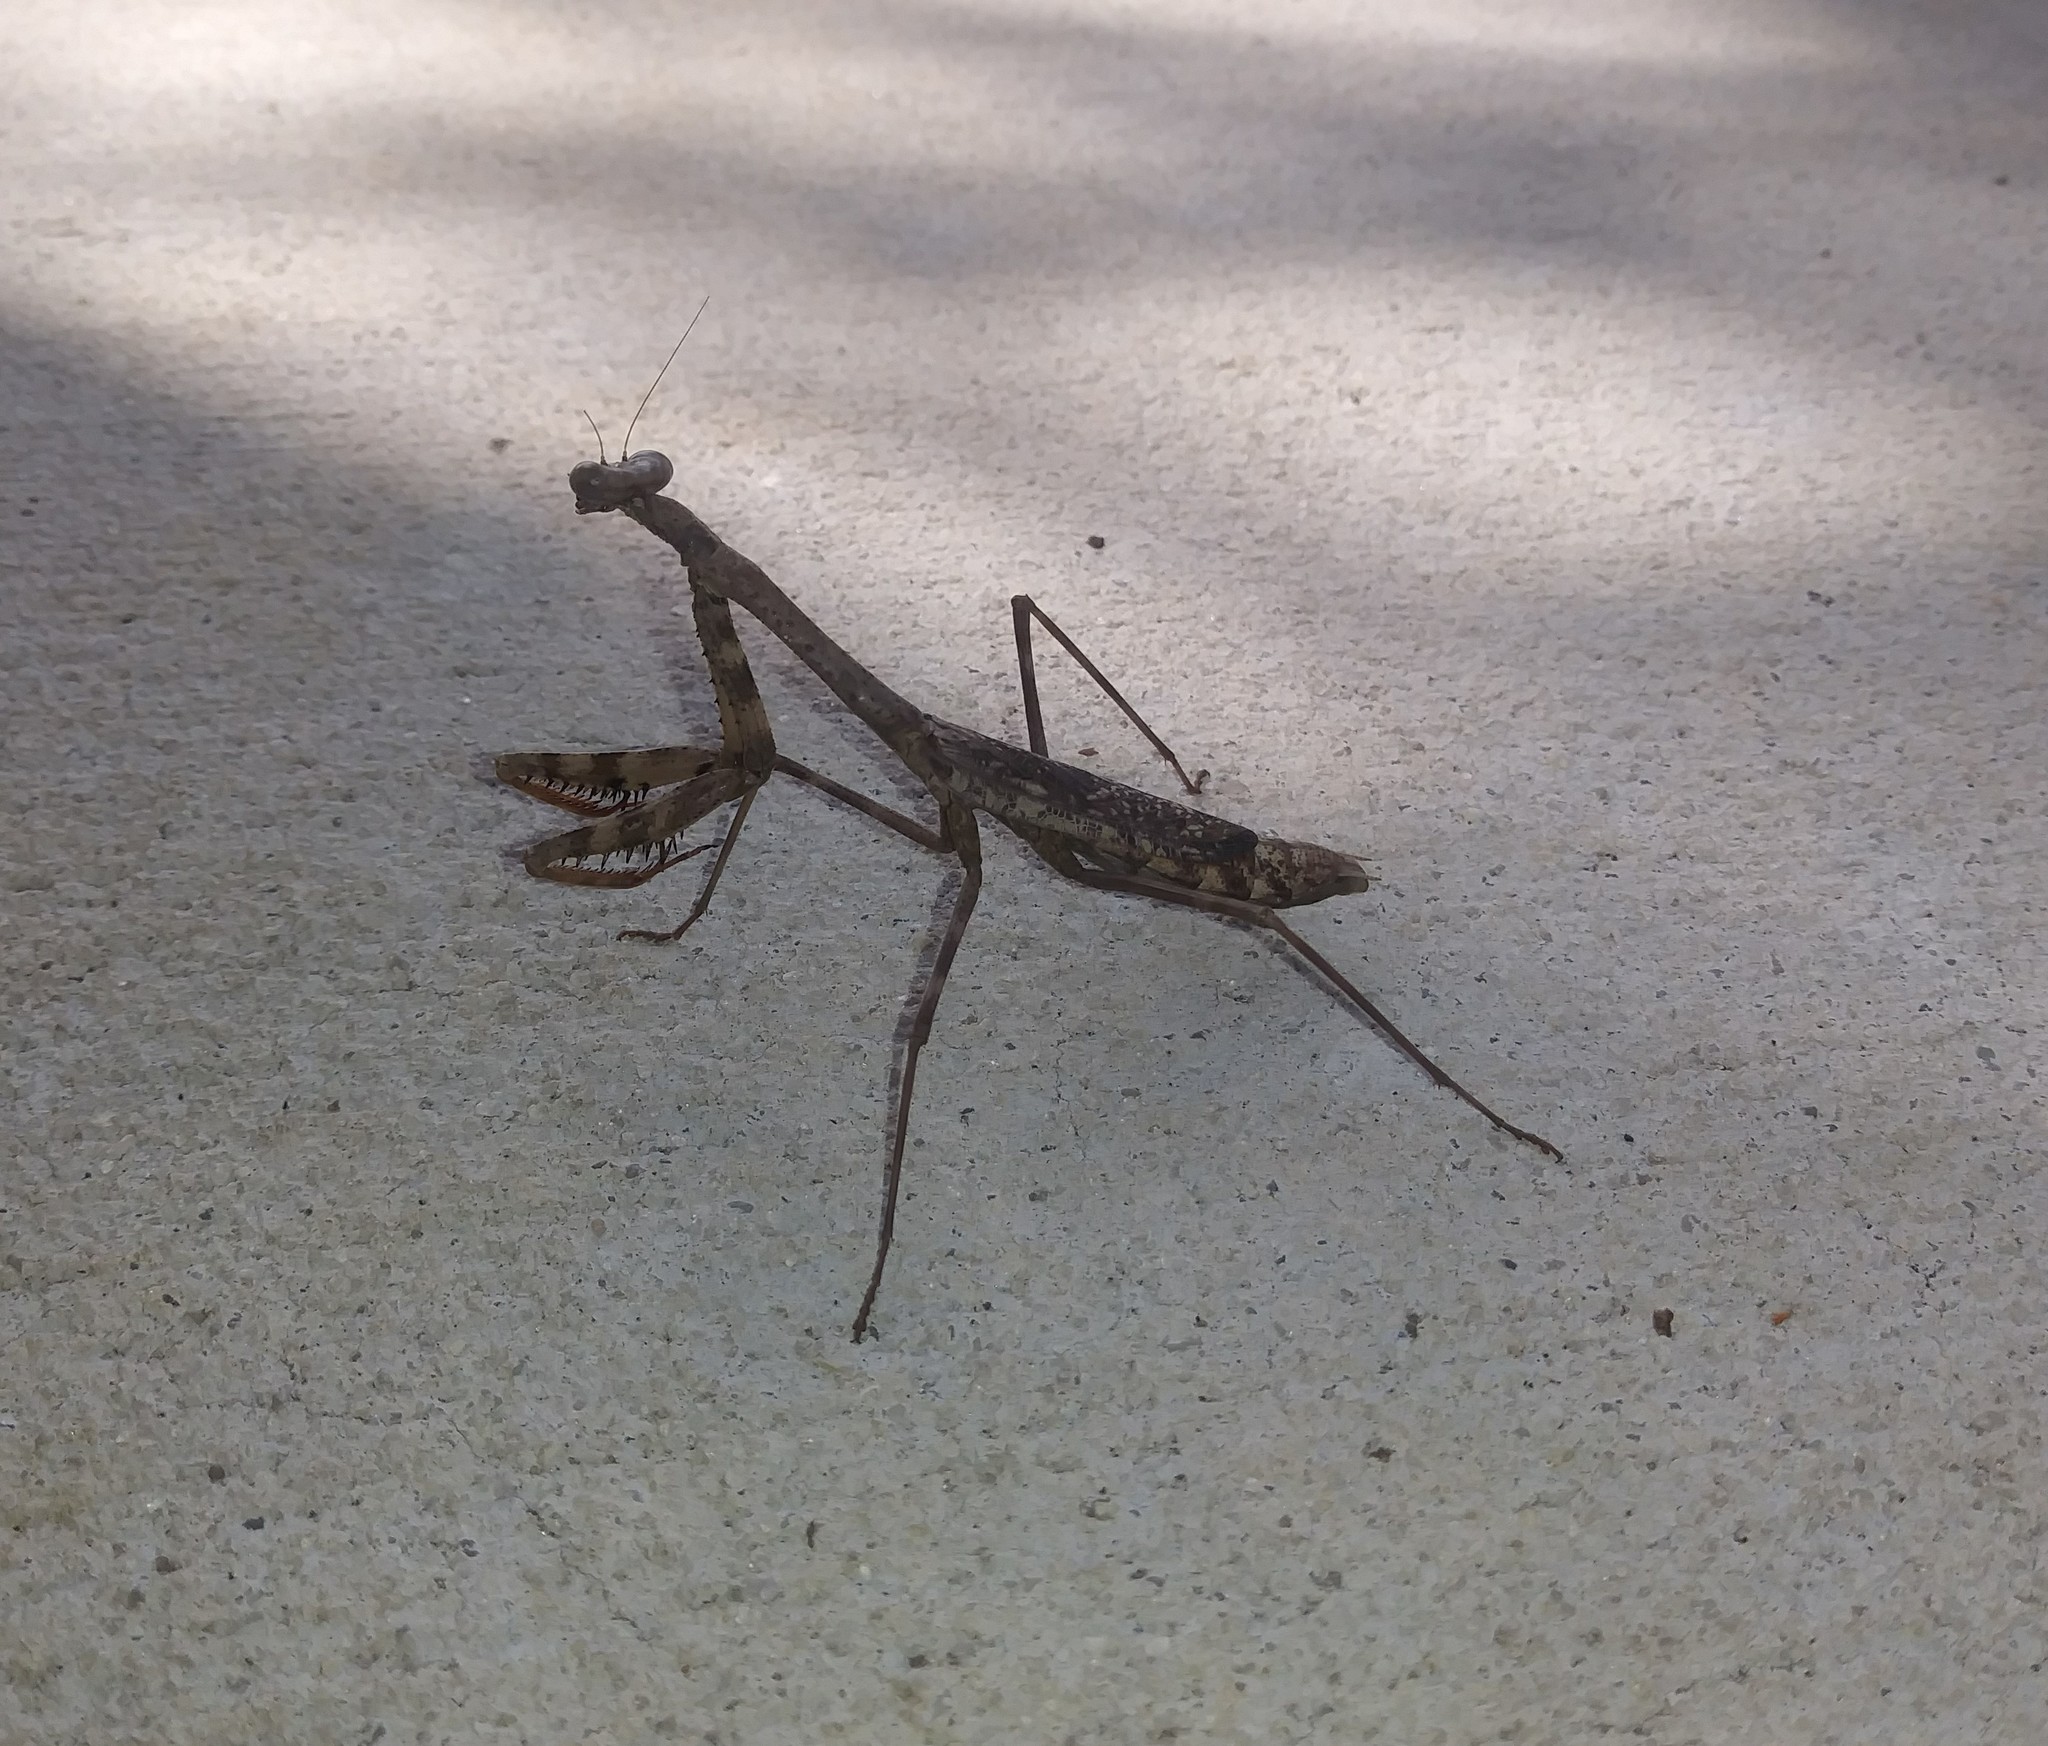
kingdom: Animalia
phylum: Arthropoda
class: Insecta
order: Mantodea
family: Mantidae
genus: Stagmomantis
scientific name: Stagmomantis carolina
